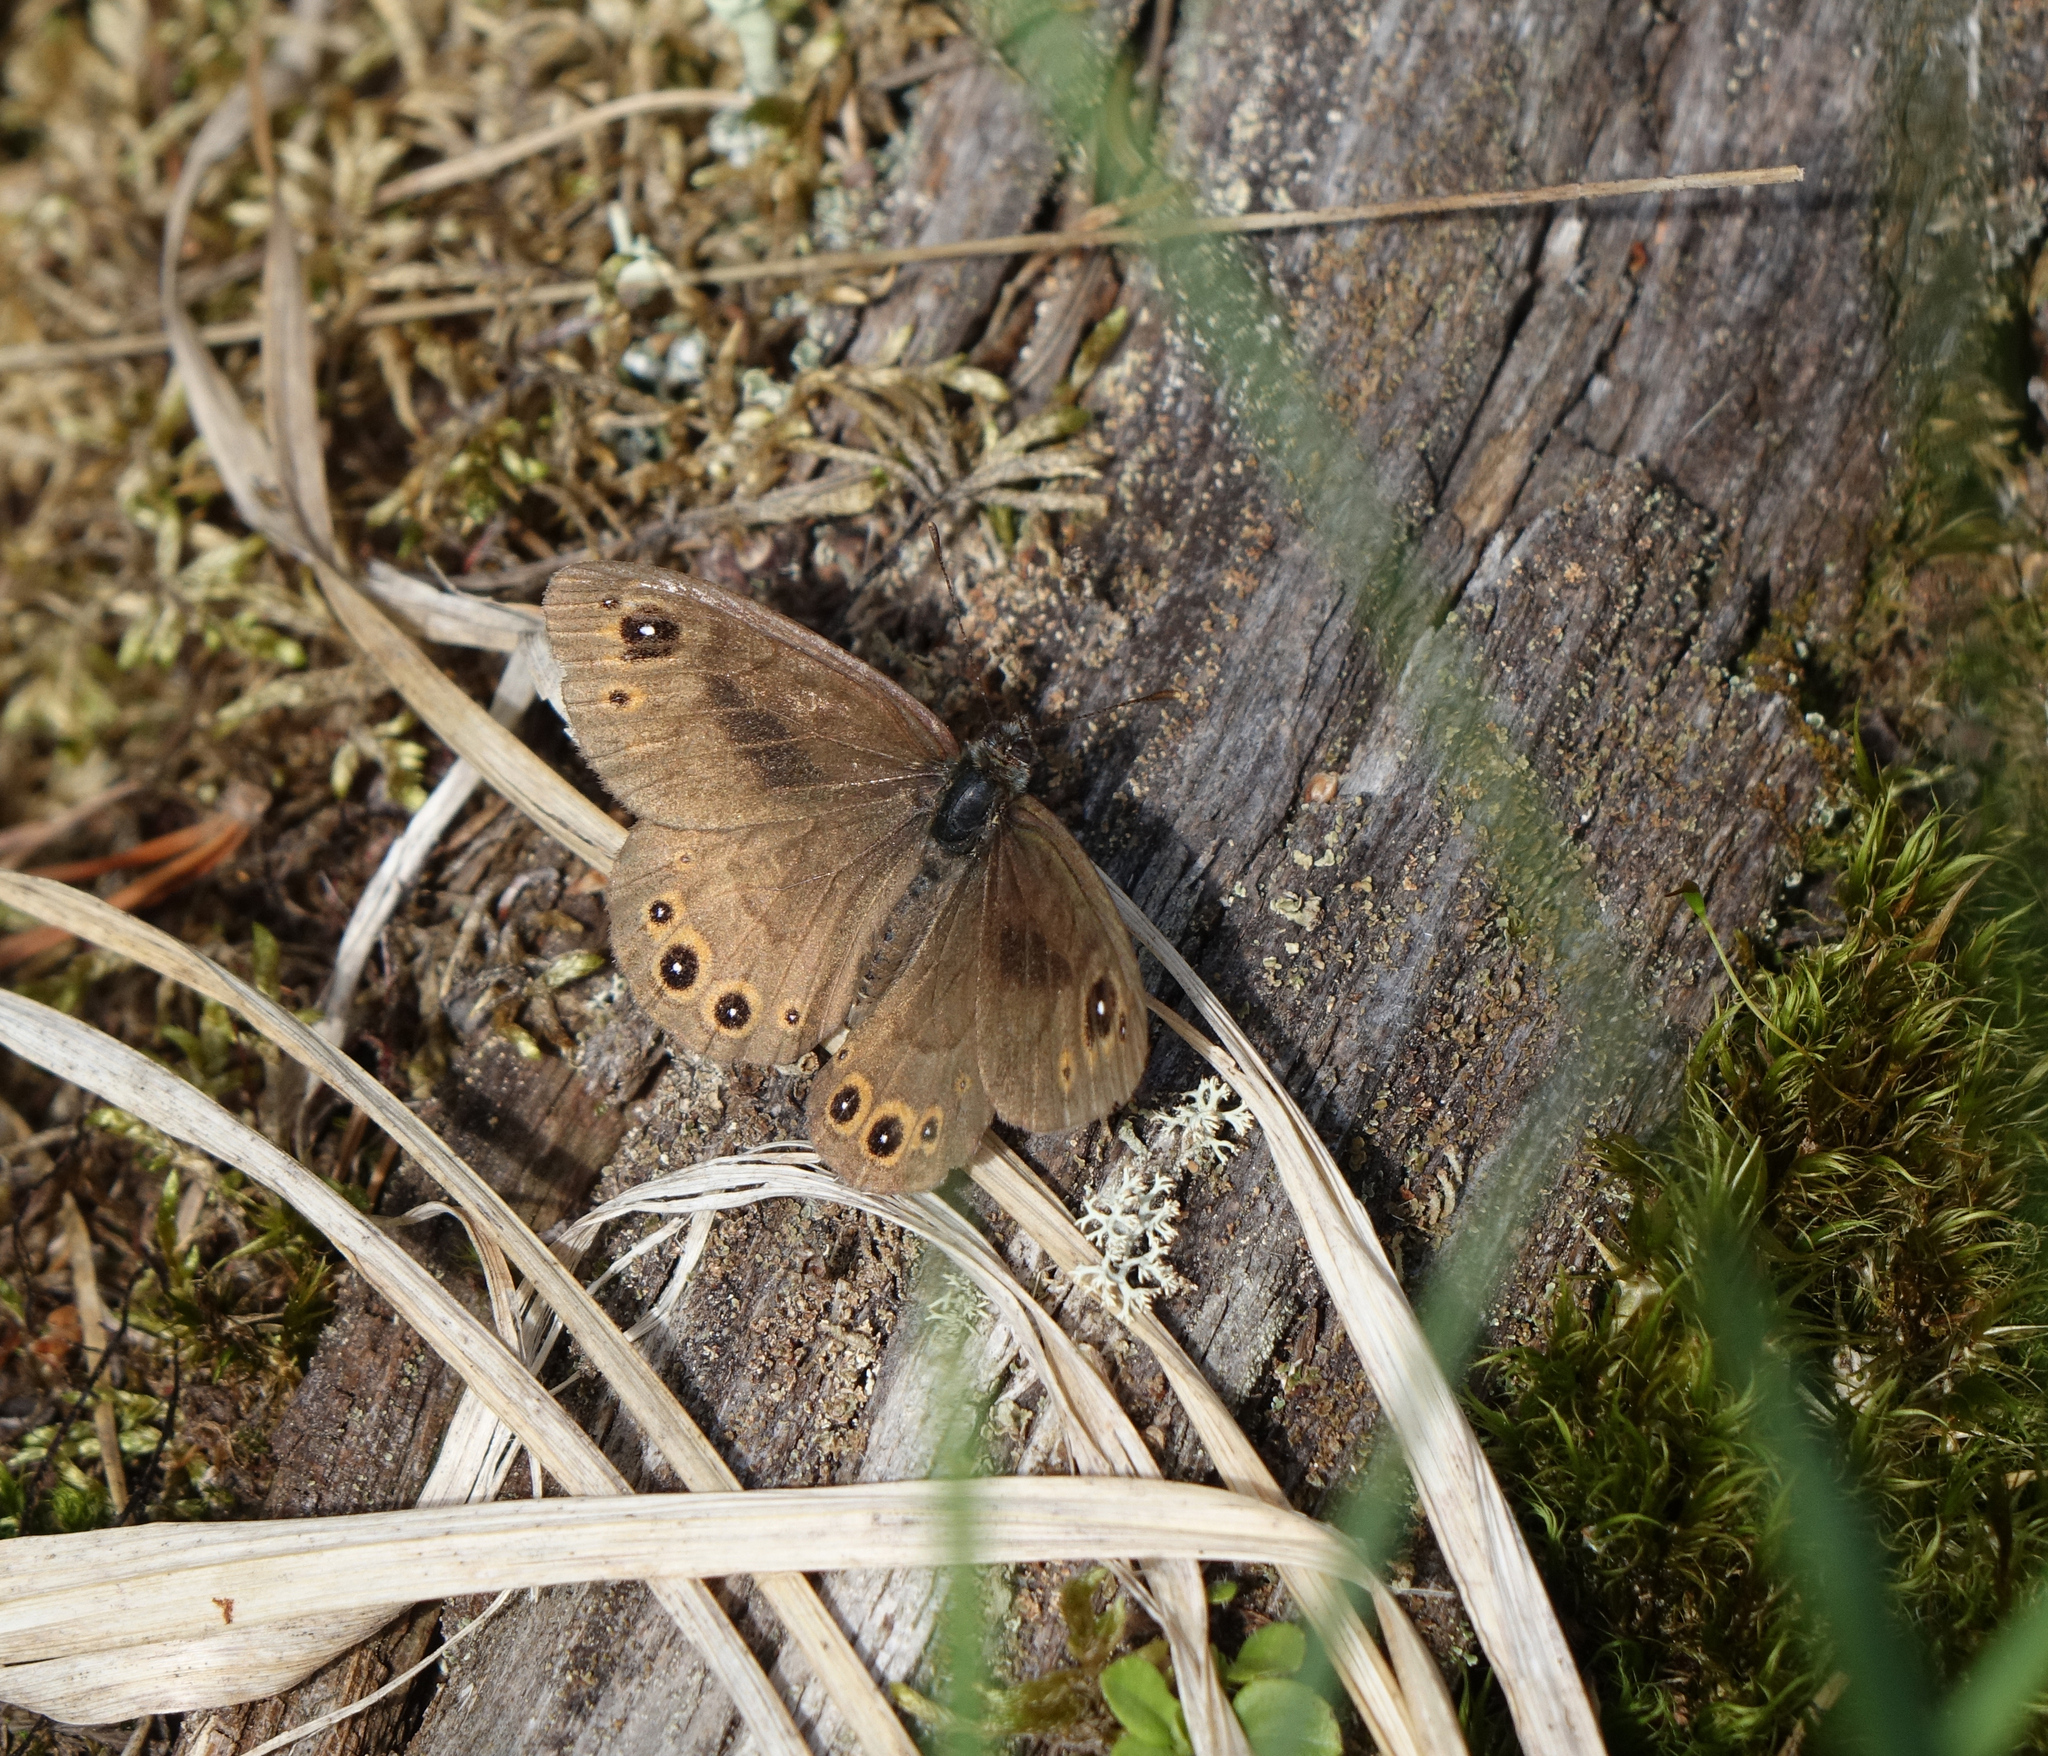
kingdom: Animalia
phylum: Arthropoda
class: Insecta
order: Lepidoptera
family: Nymphalidae
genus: Pararge
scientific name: Pararge petropolitana
